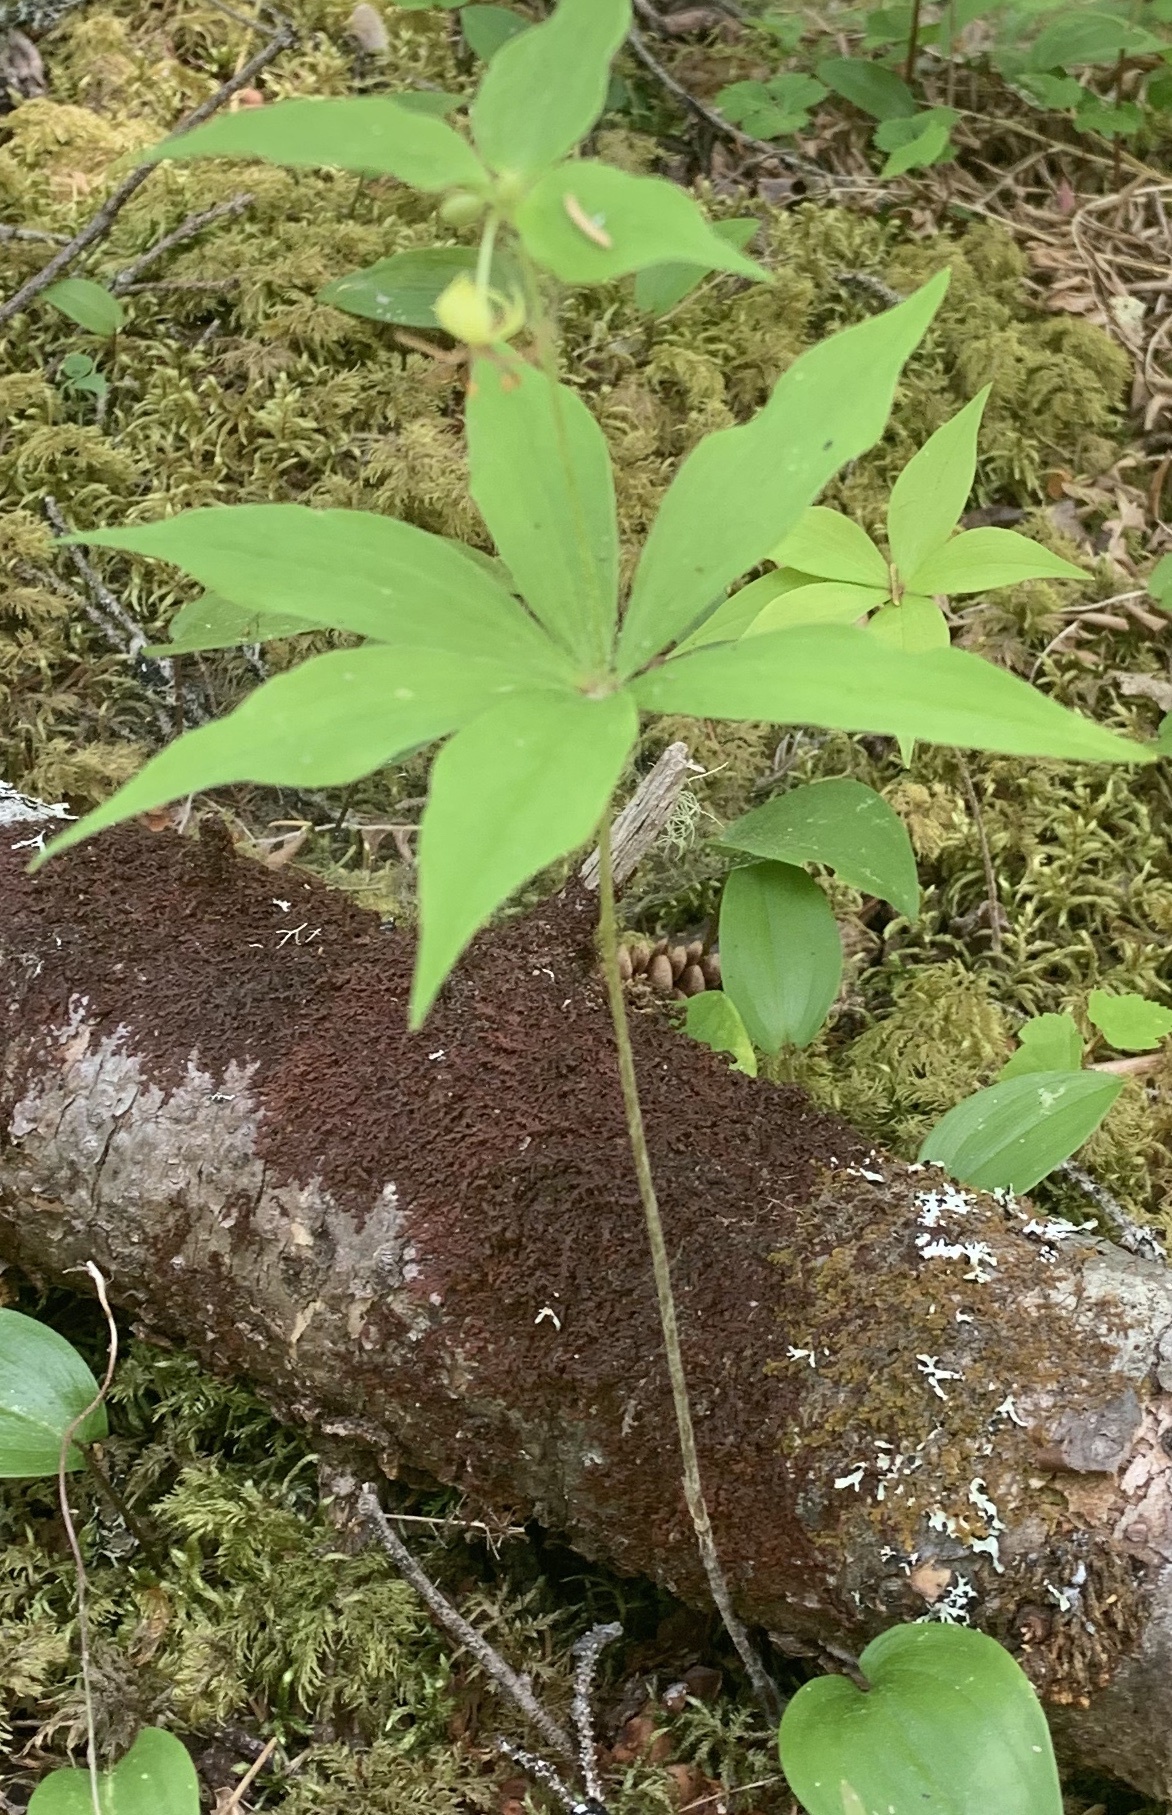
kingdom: Plantae
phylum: Tracheophyta
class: Liliopsida
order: Liliales
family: Liliaceae
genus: Medeola
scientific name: Medeola virginiana
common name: Indian cucumber-root
